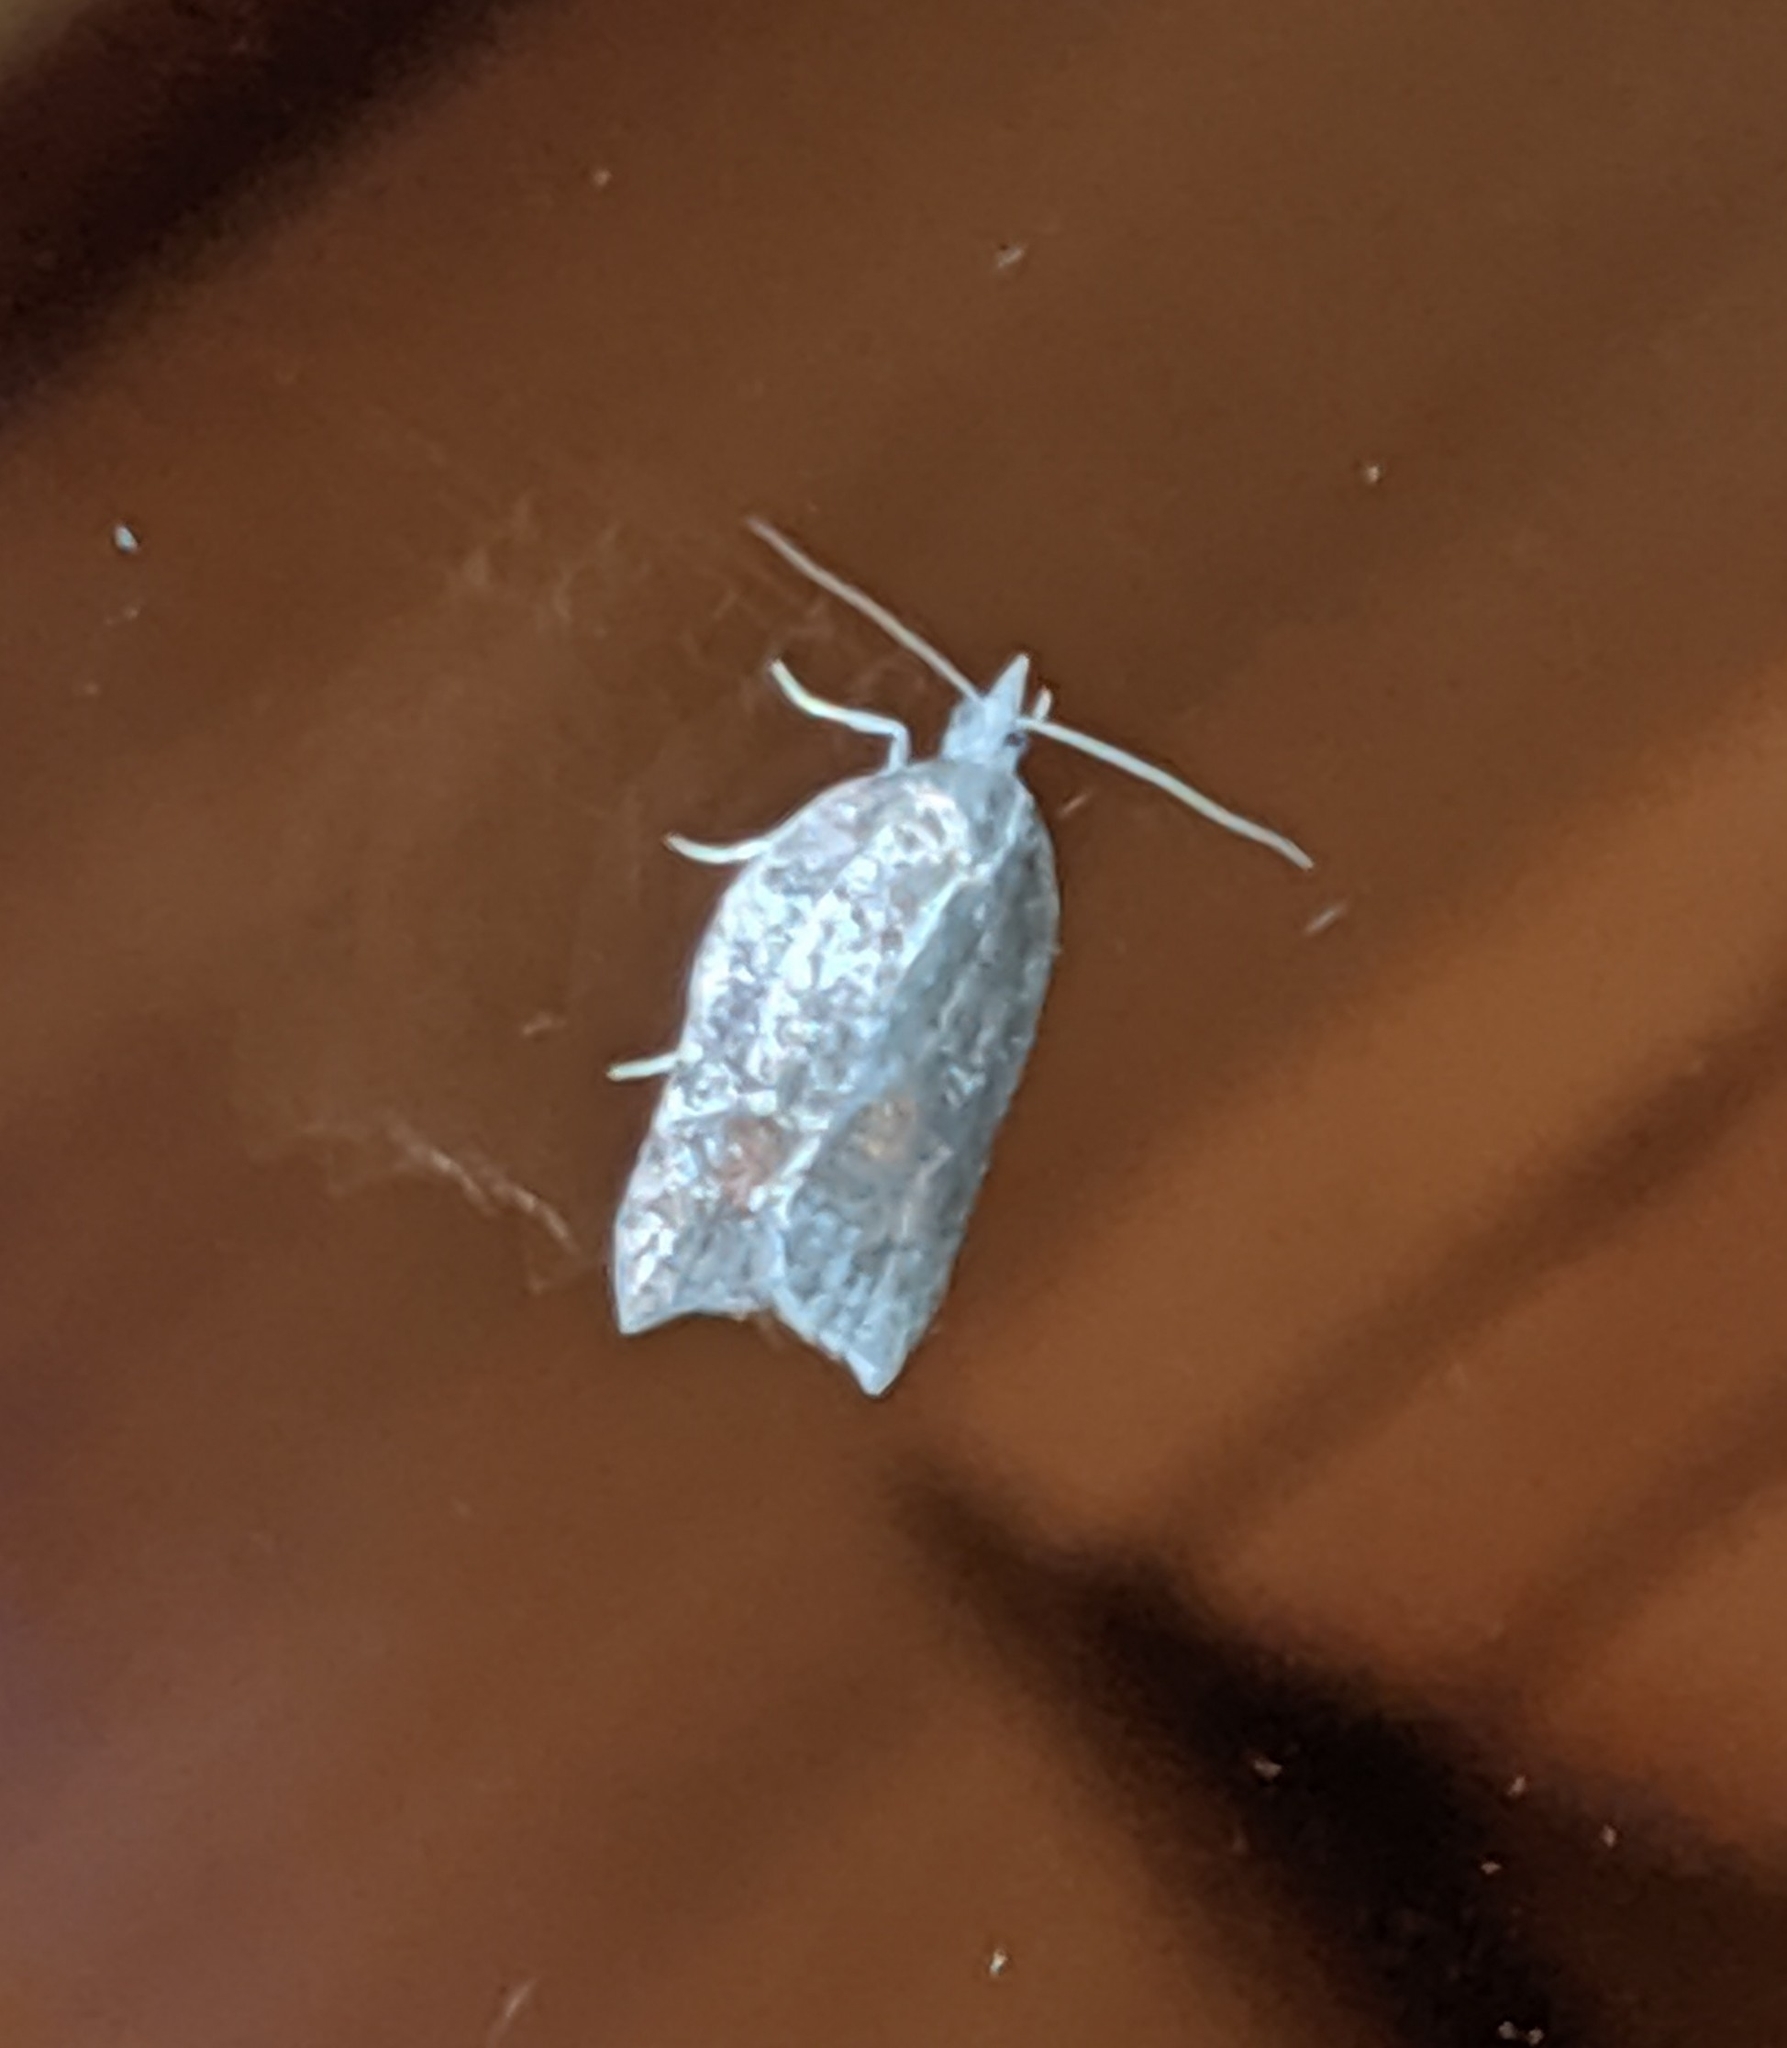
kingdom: Animalia
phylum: Arthropoda
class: Insecta
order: Lepidoptera
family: Tortricidae
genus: Acleris
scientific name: Acleris effractana
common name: Hook-winged tortrix moth
